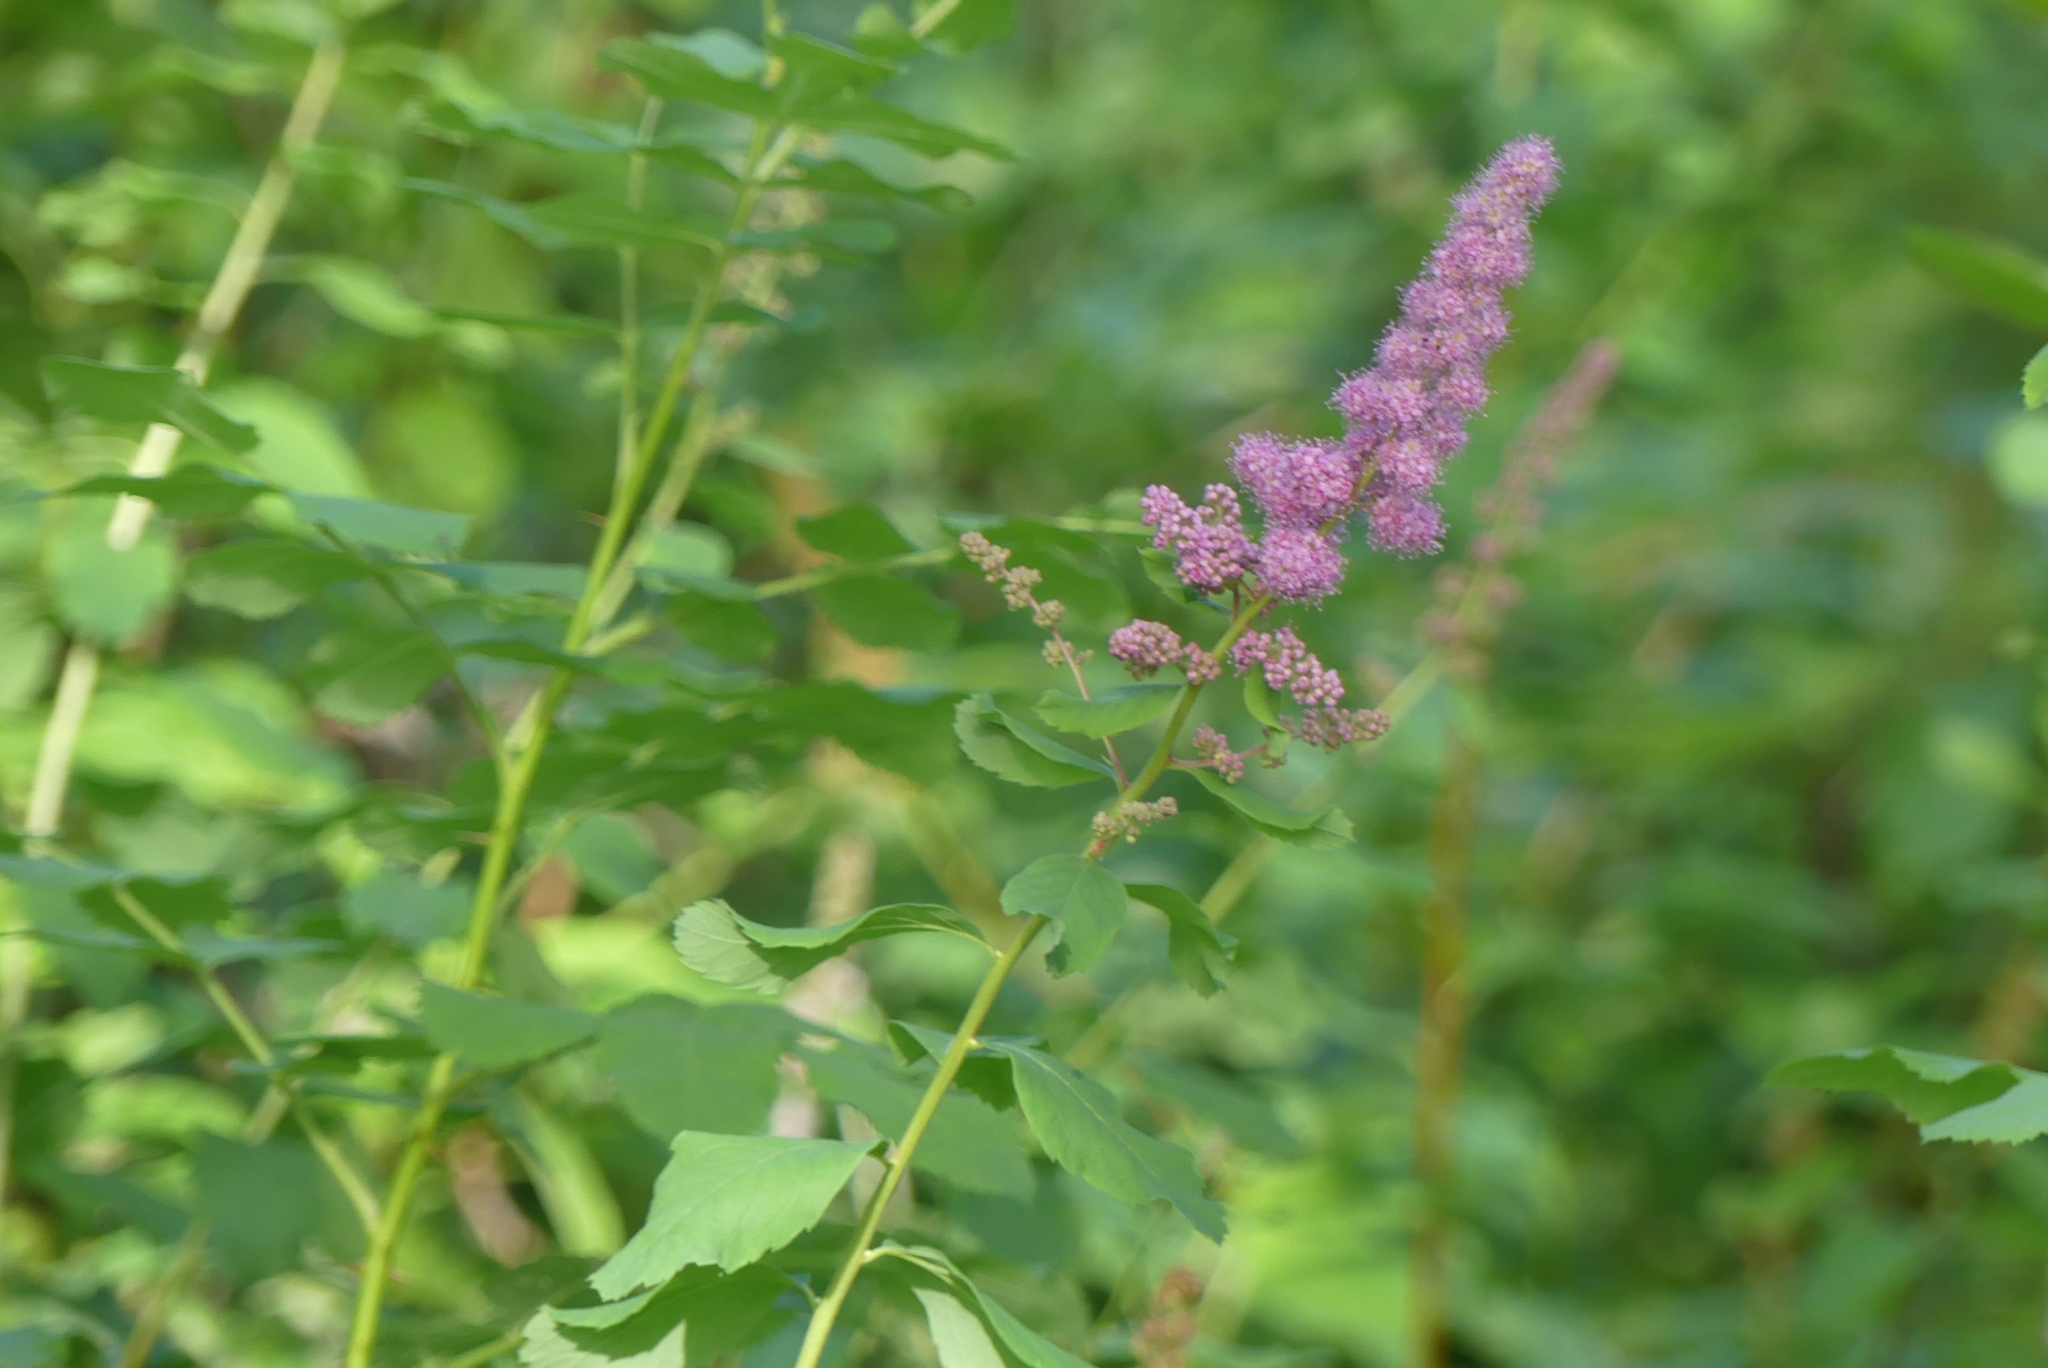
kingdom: Plantae
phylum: Tracheophyta
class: Magnoliopsida
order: Rosales
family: Rosaceae
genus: Spiraea
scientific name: Spiraea douglasii
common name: Steeplebush
